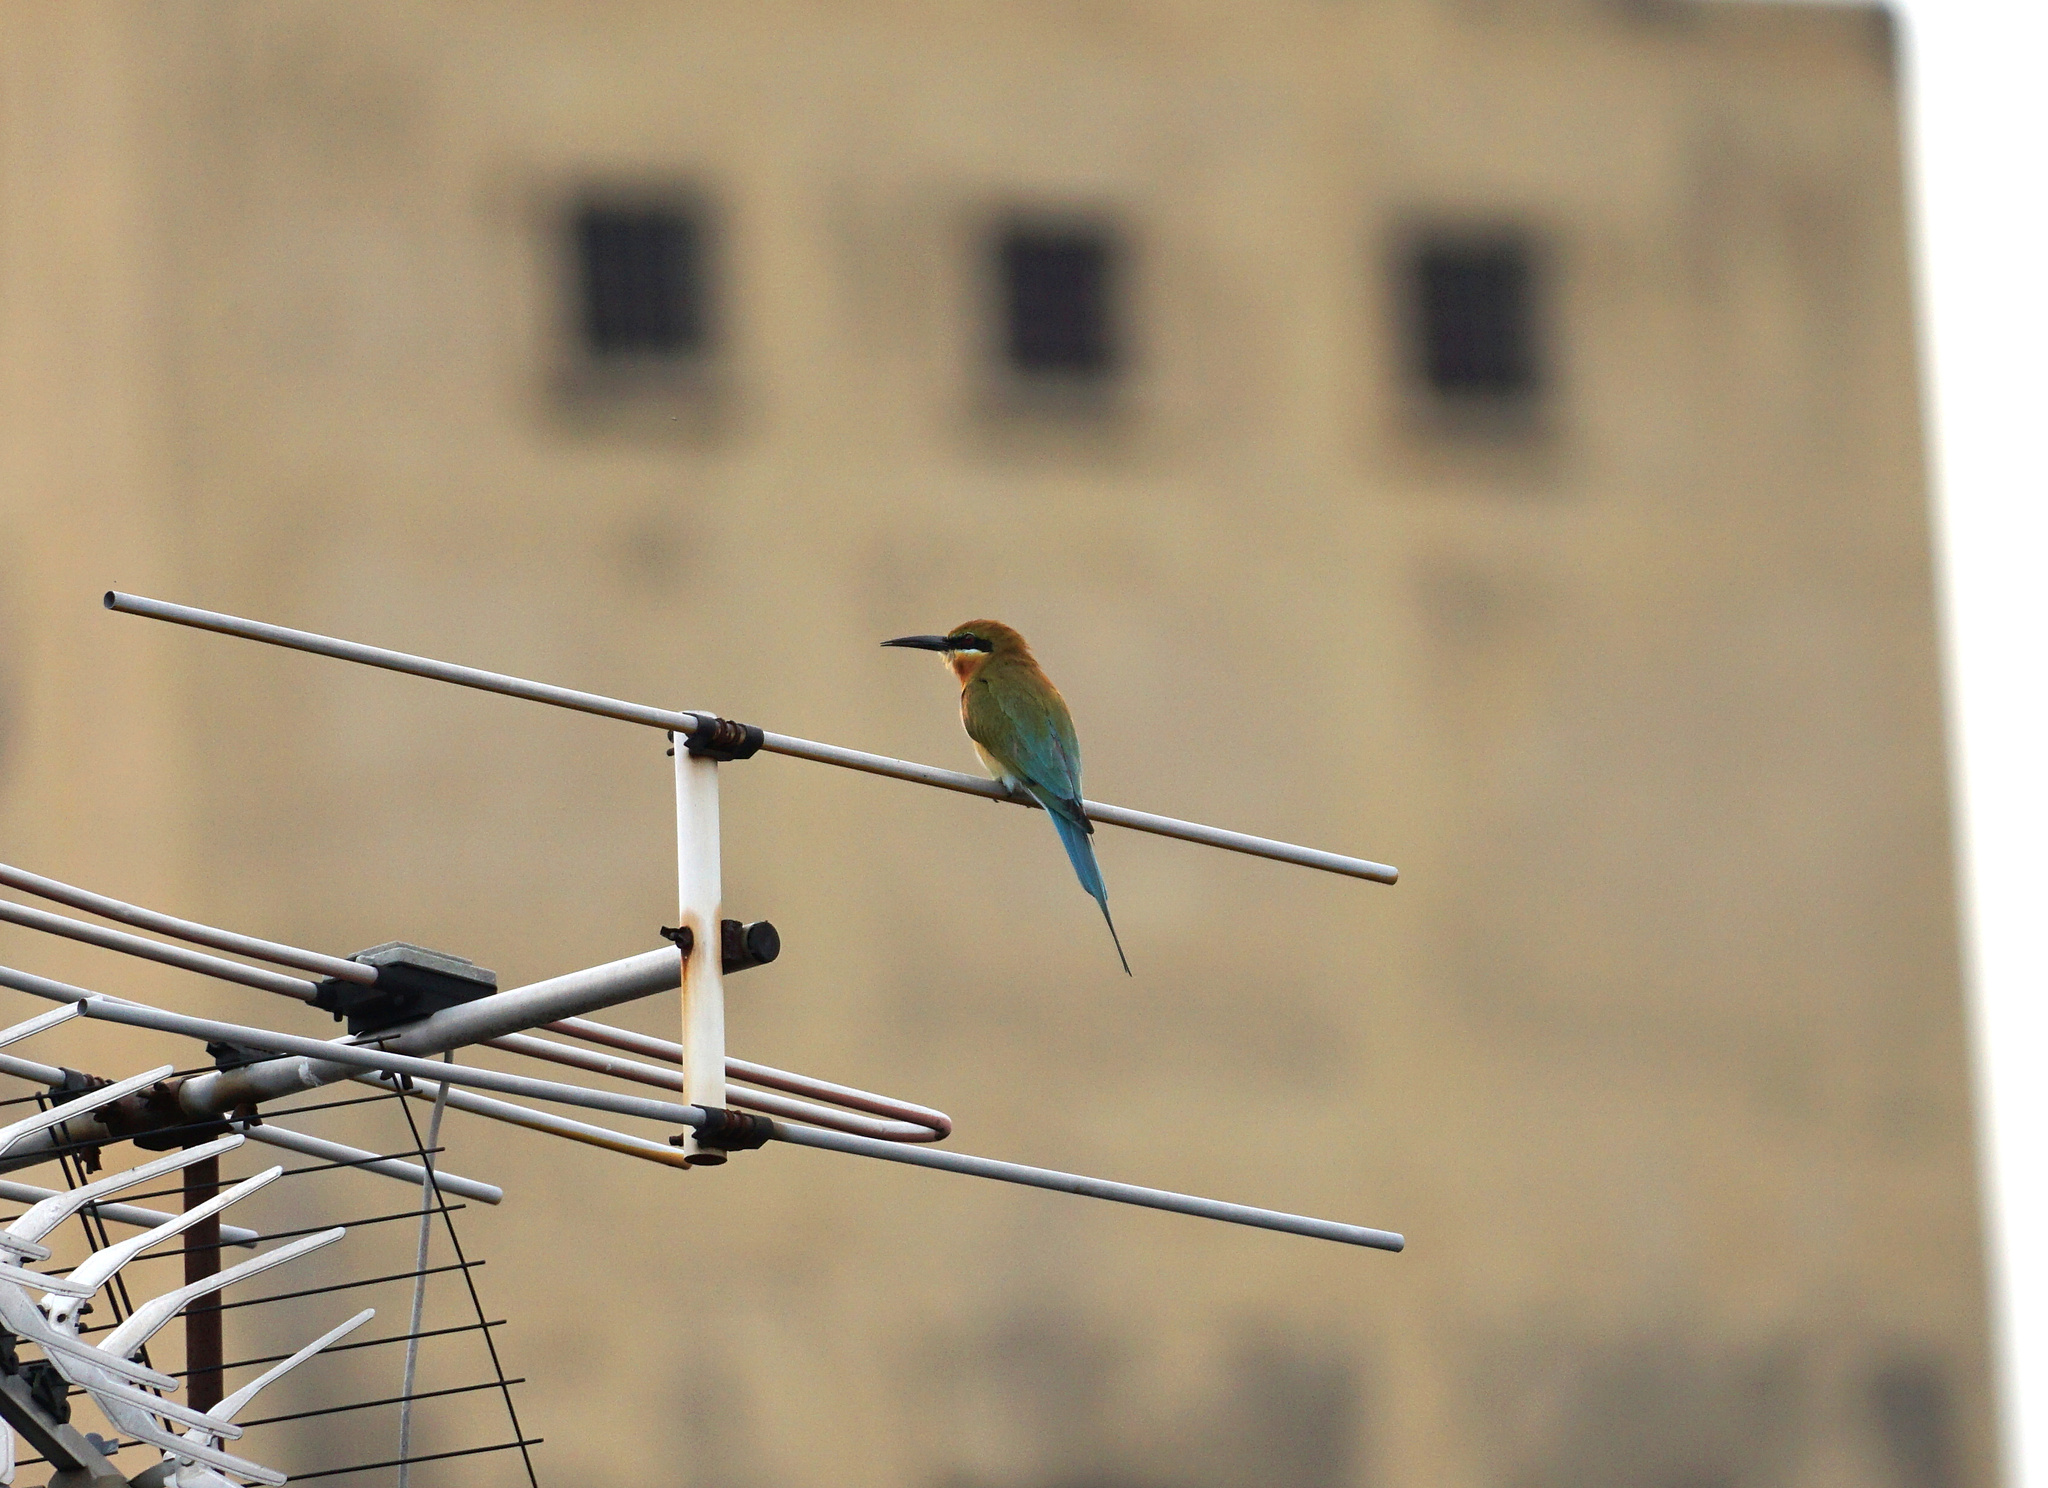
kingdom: Animalia
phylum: Chordata
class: Aves
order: Coraciiformes
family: Meropidae
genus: Merops
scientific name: Merops philippinus
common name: Blue-tailed bee-eater
